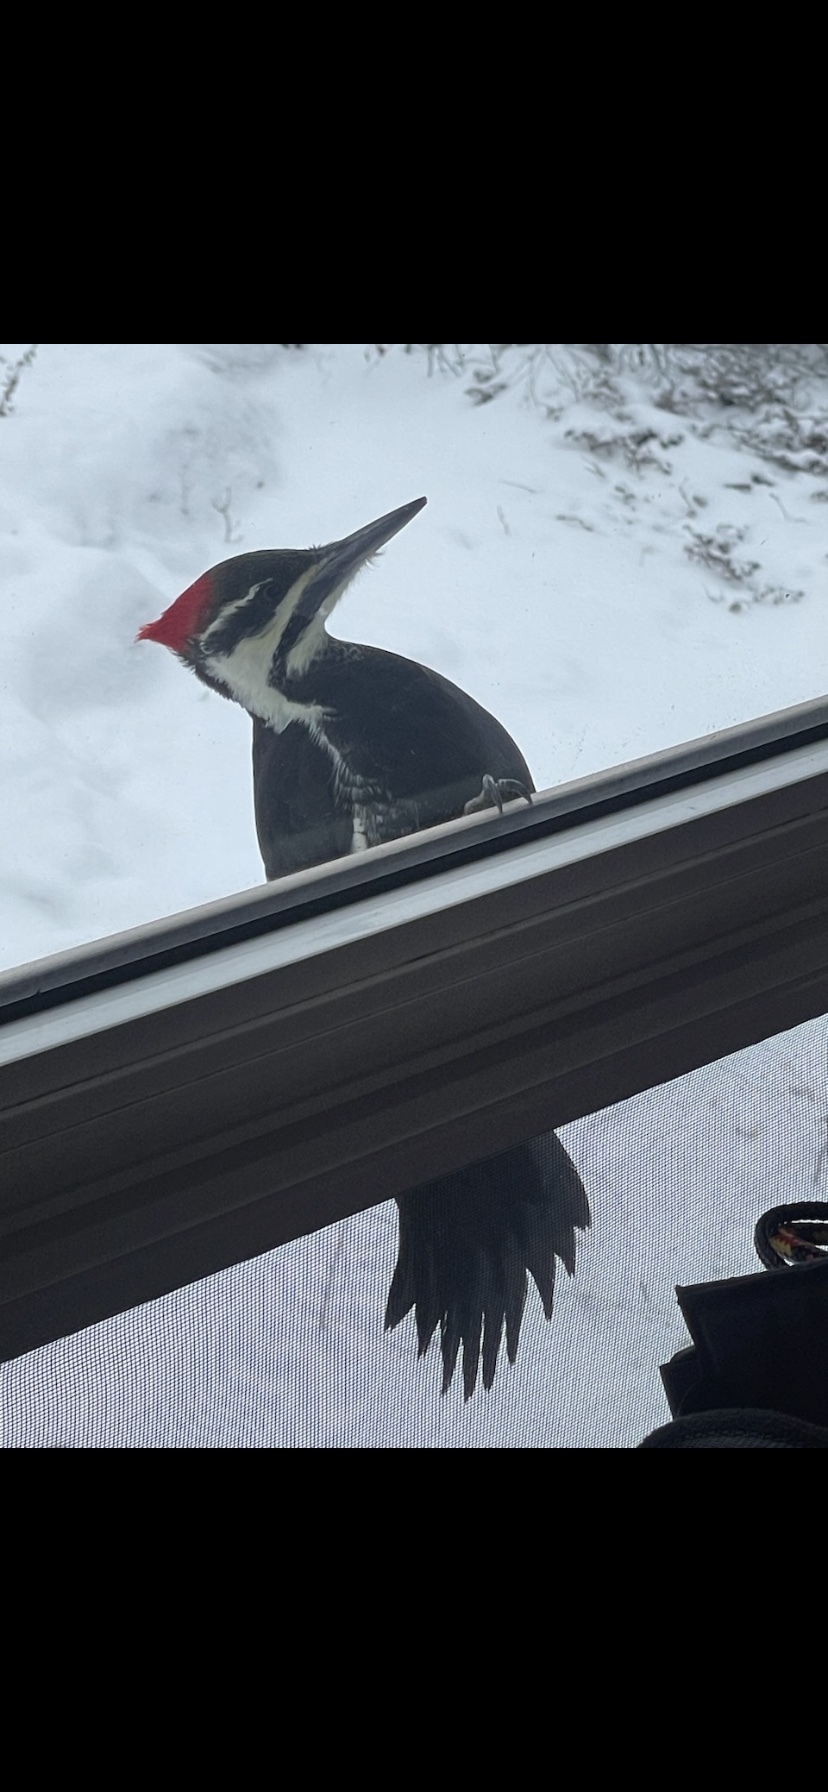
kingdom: Animalia
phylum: Chordata
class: Aves
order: Piciformes
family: Picidae
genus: Dryocopus
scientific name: Dryocopus pileatus
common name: Pileated woodpecker
